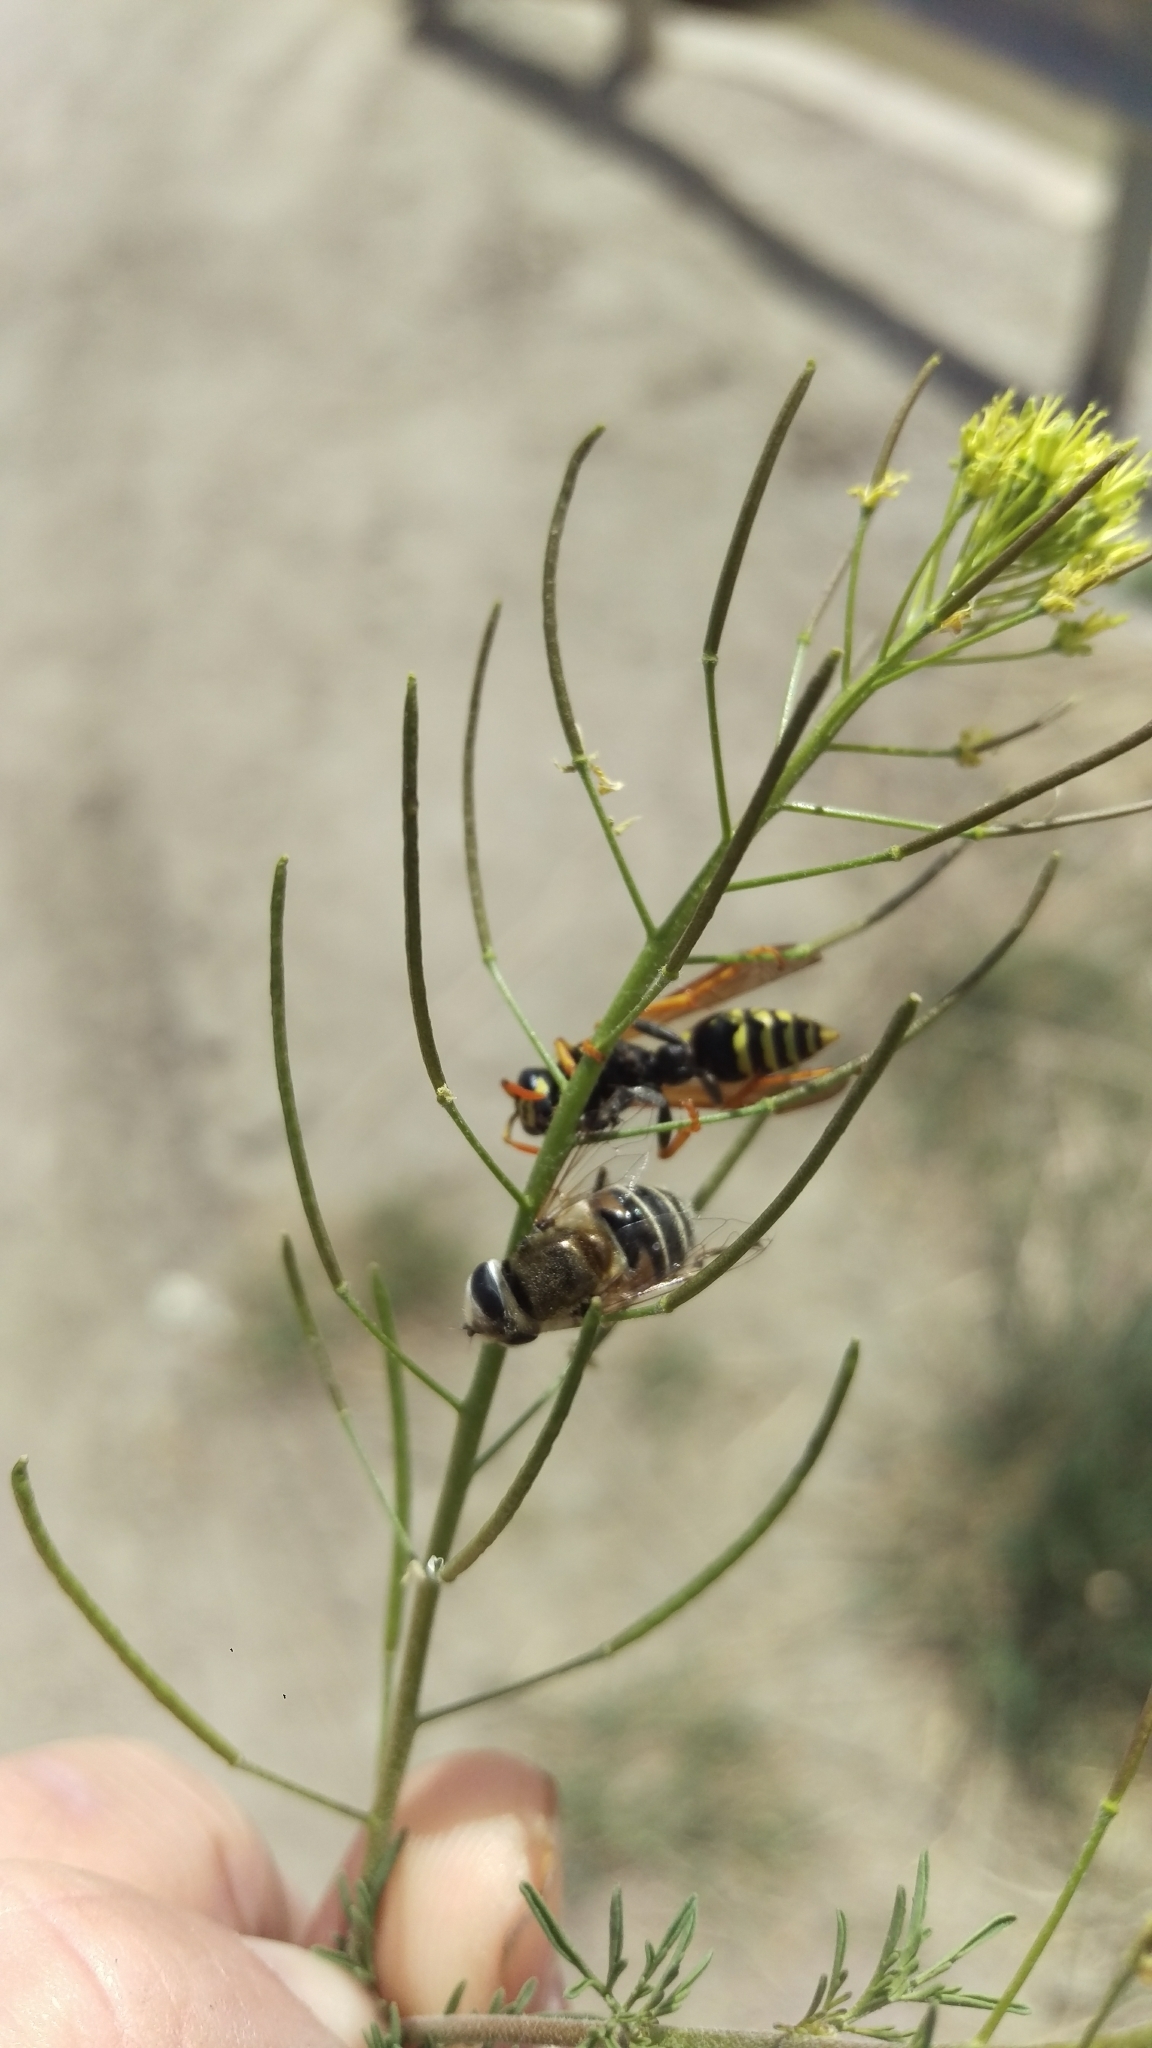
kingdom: Animalia
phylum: Arthropoda
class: Insecta
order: Diptera
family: Syrphidae
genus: Eristalis
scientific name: Eristalis stipator
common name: Yellow-shouldered drone fly
